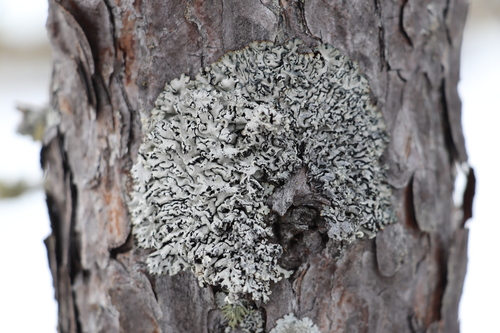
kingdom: Fungi
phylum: Ascomycota
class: Lecanoromycetes
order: Lecanorales
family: Parmeliaceae
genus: Hypogymnia
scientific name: Hypogymnia physodes
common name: Dark crottle
